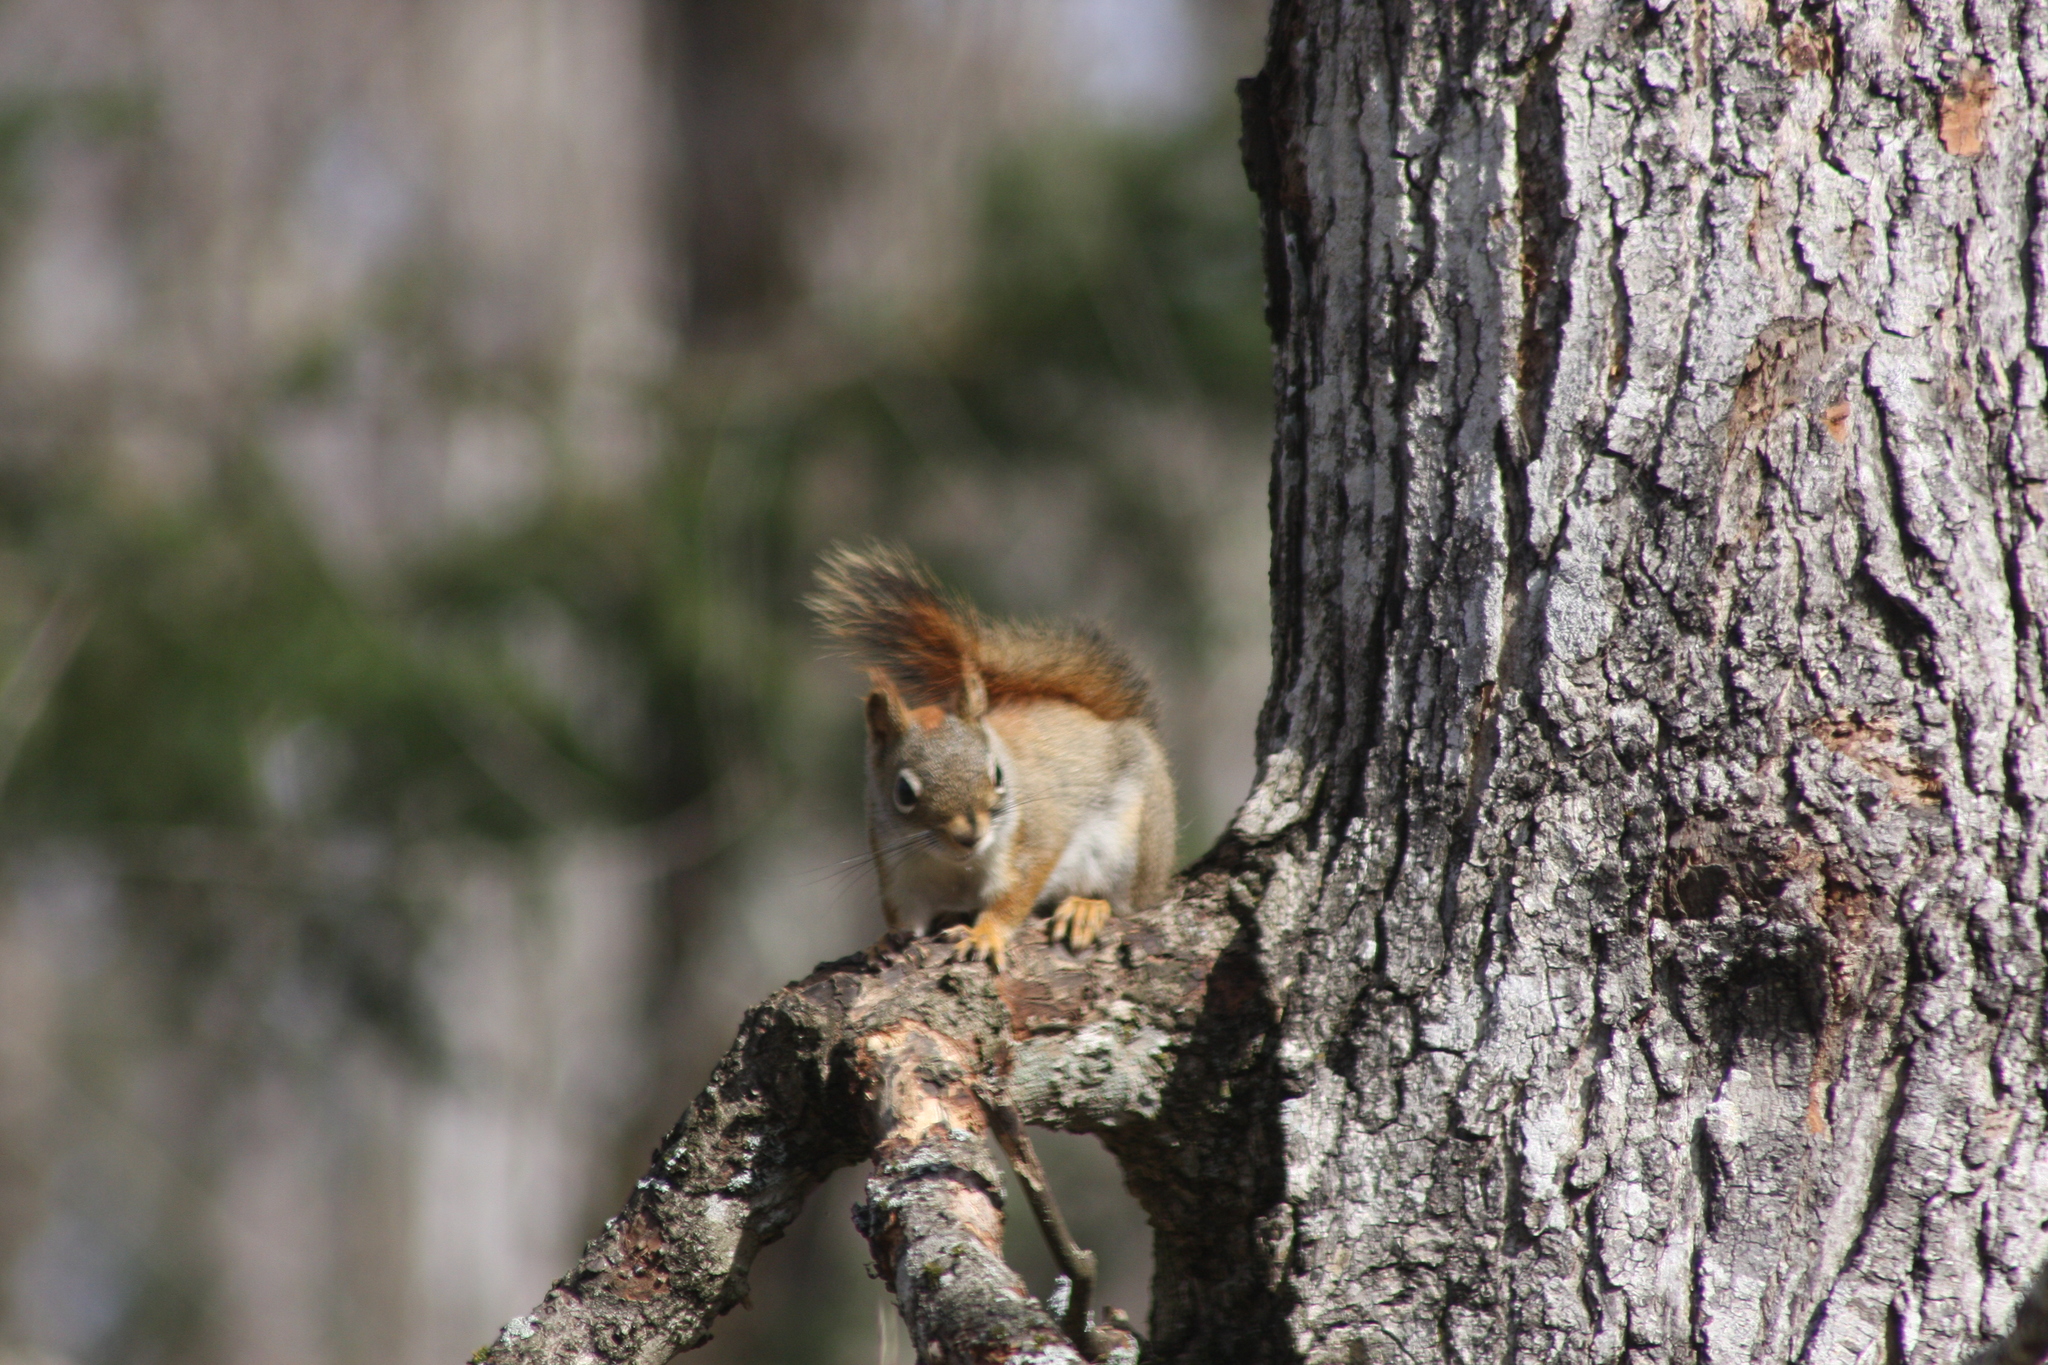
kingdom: Animalia
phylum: Chordata
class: Mammalia
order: Rodentia
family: Sciuridae
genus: Tamiasciurus
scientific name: Tamiasciurus hudsonicus
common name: Red squirrel
